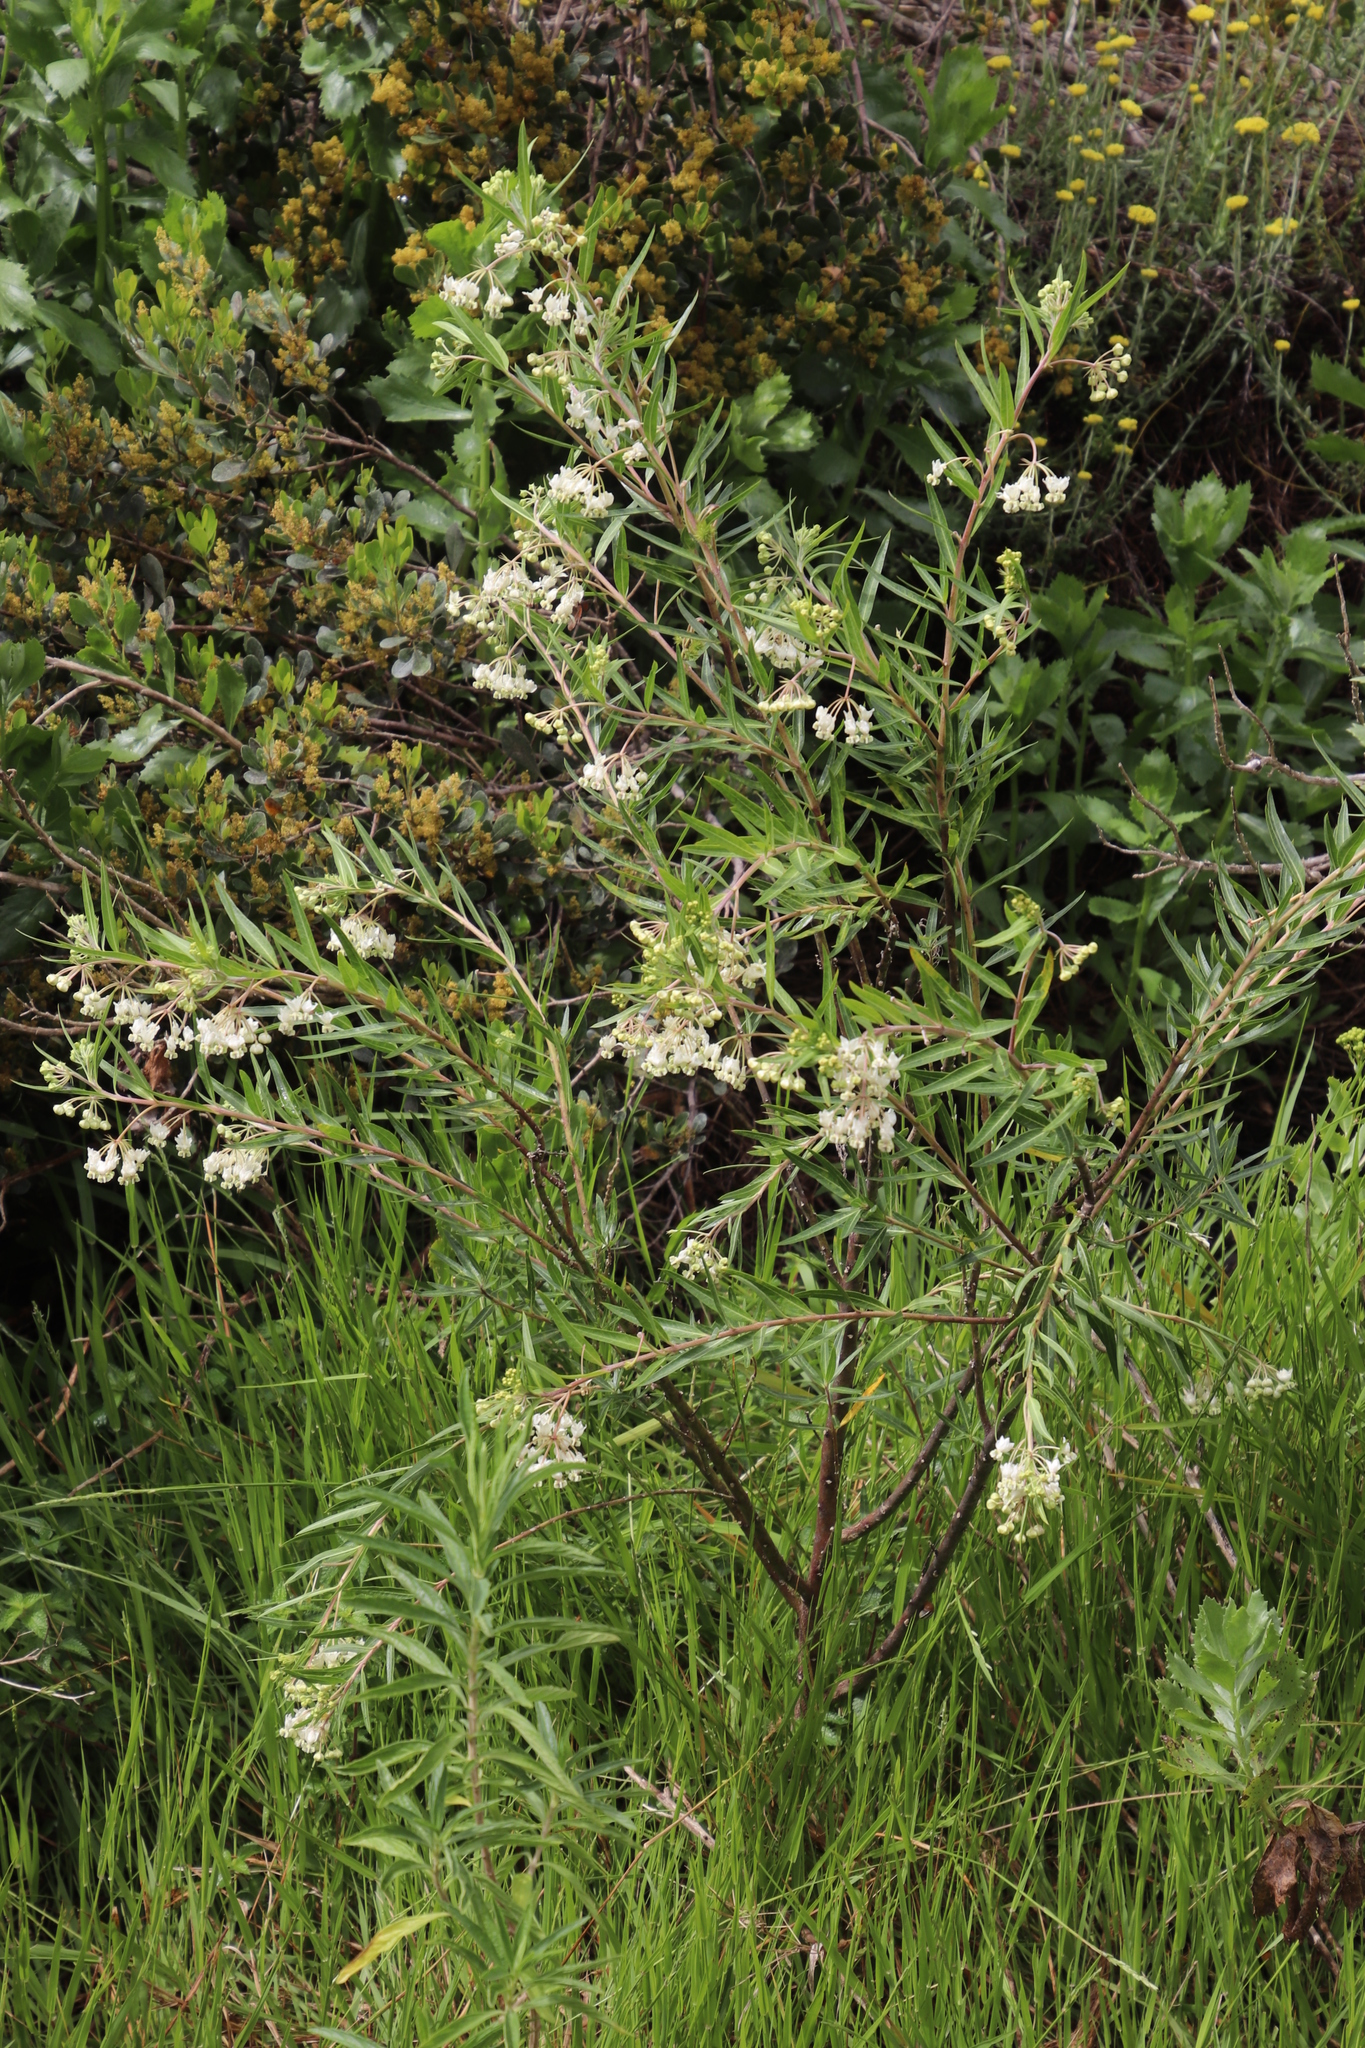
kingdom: Plantae
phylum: Tracheophyta
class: Magnoliopsida
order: Gentianales
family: Apocynaceae
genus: Gomphocarpus
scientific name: Gomphocarpus fruticosus
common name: Milkweed
